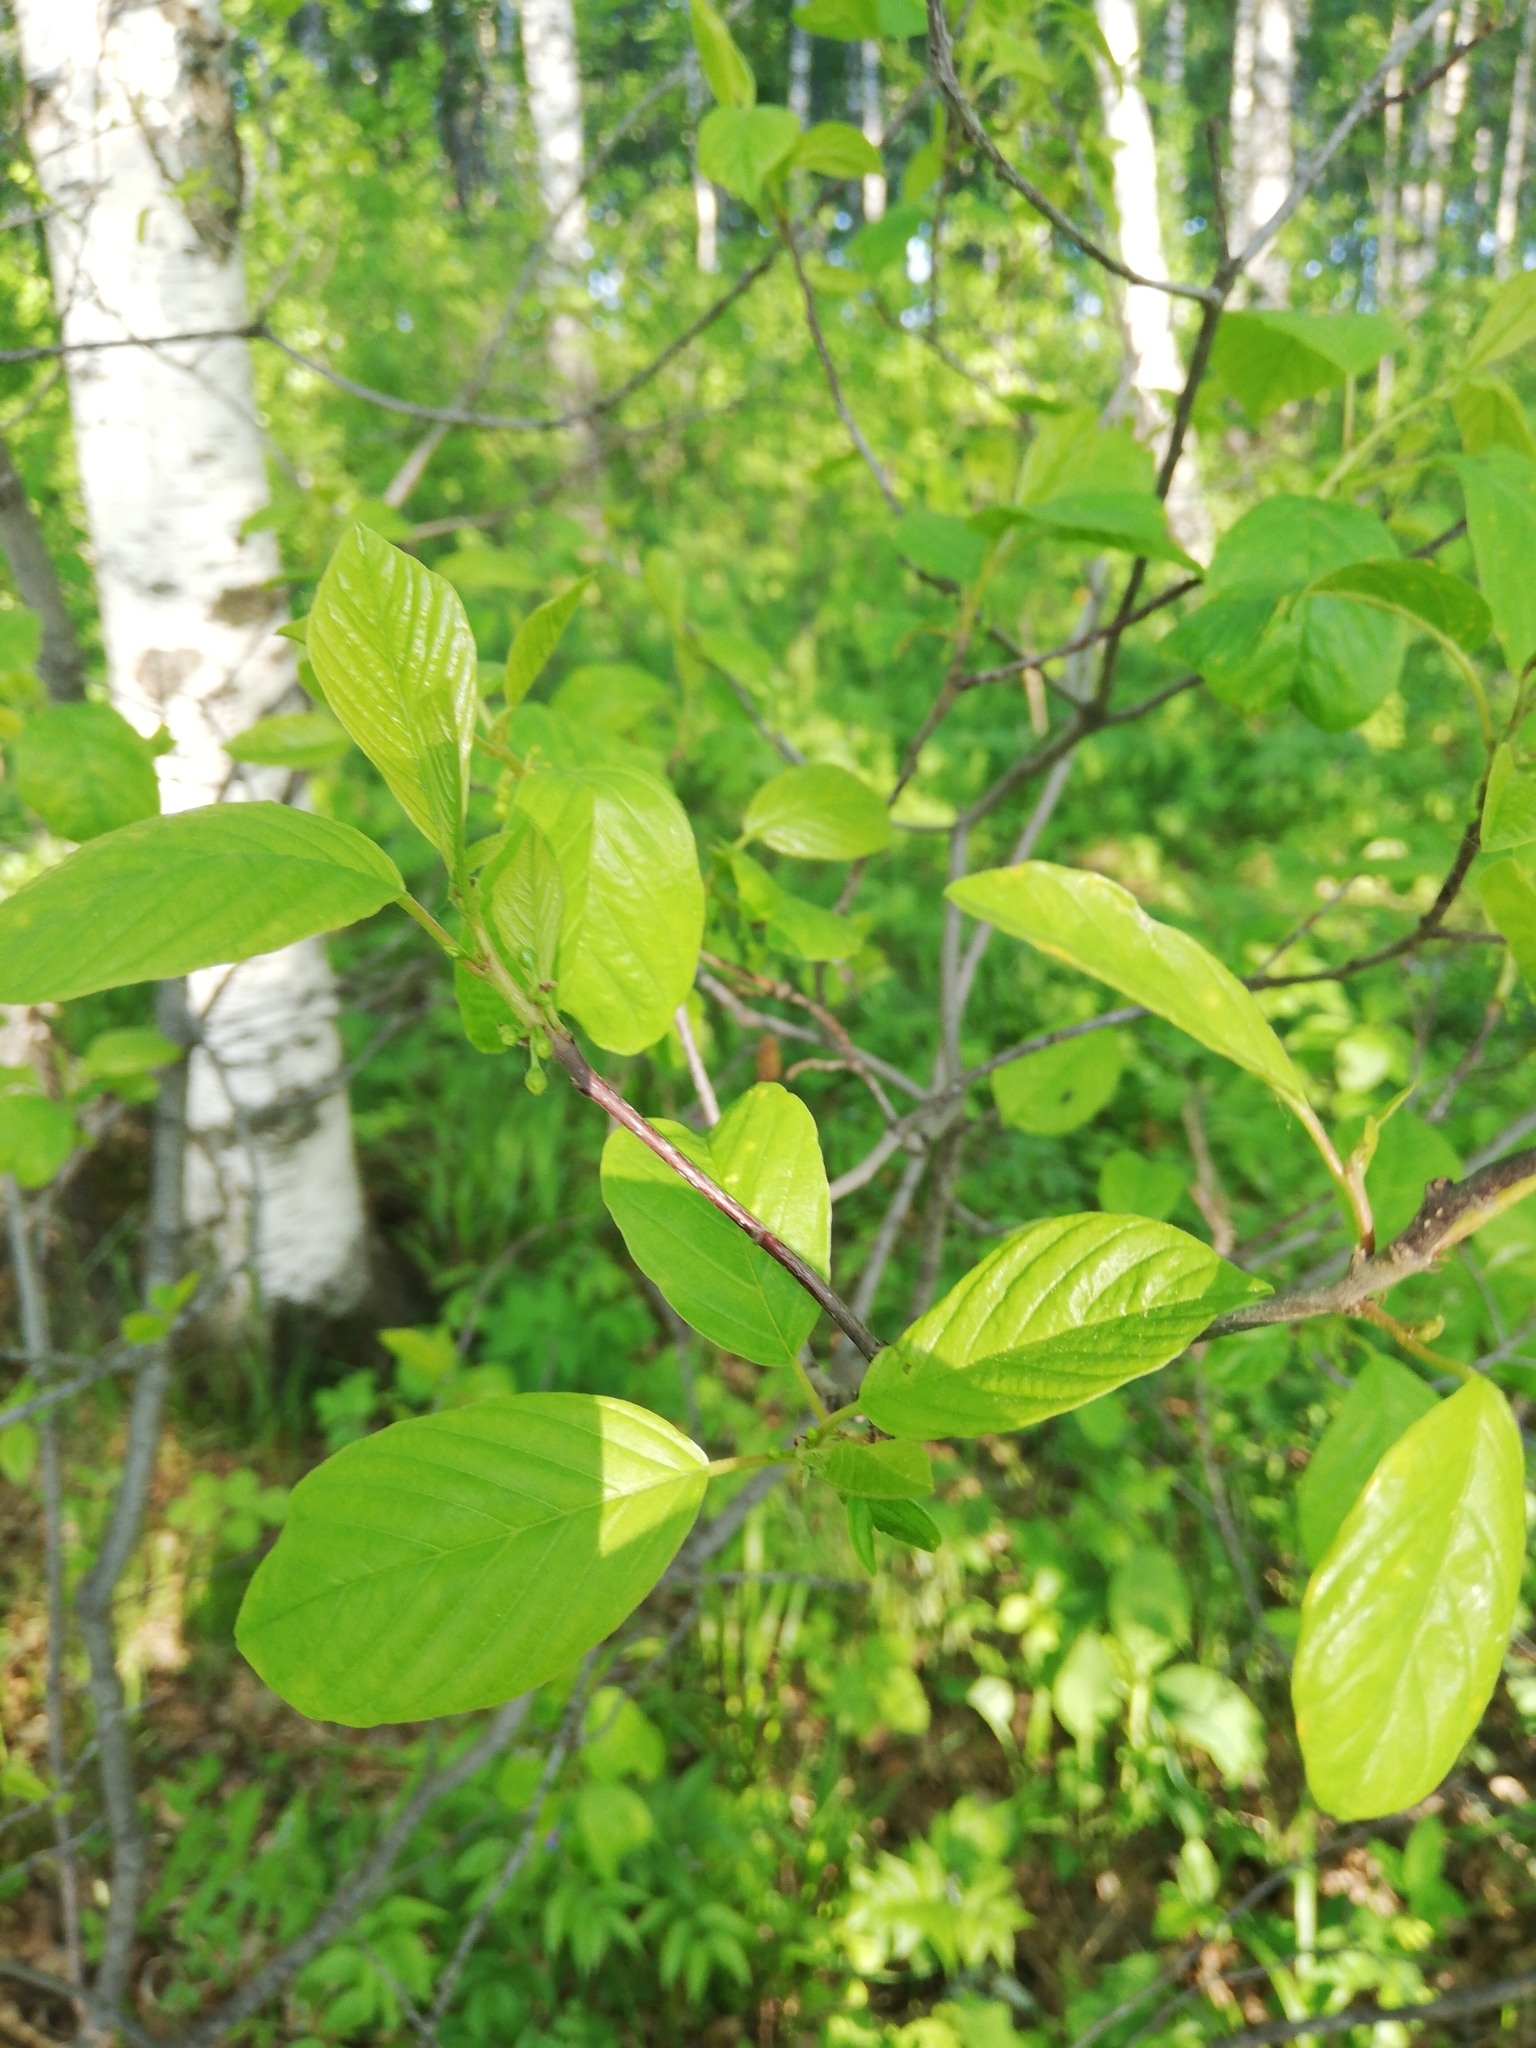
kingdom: Plantae
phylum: Tracheophyta
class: Magnoliopsida
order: Rosales
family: Rhamnaceae
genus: Frangula
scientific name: Frangula alnus
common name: Alder buckthorn
